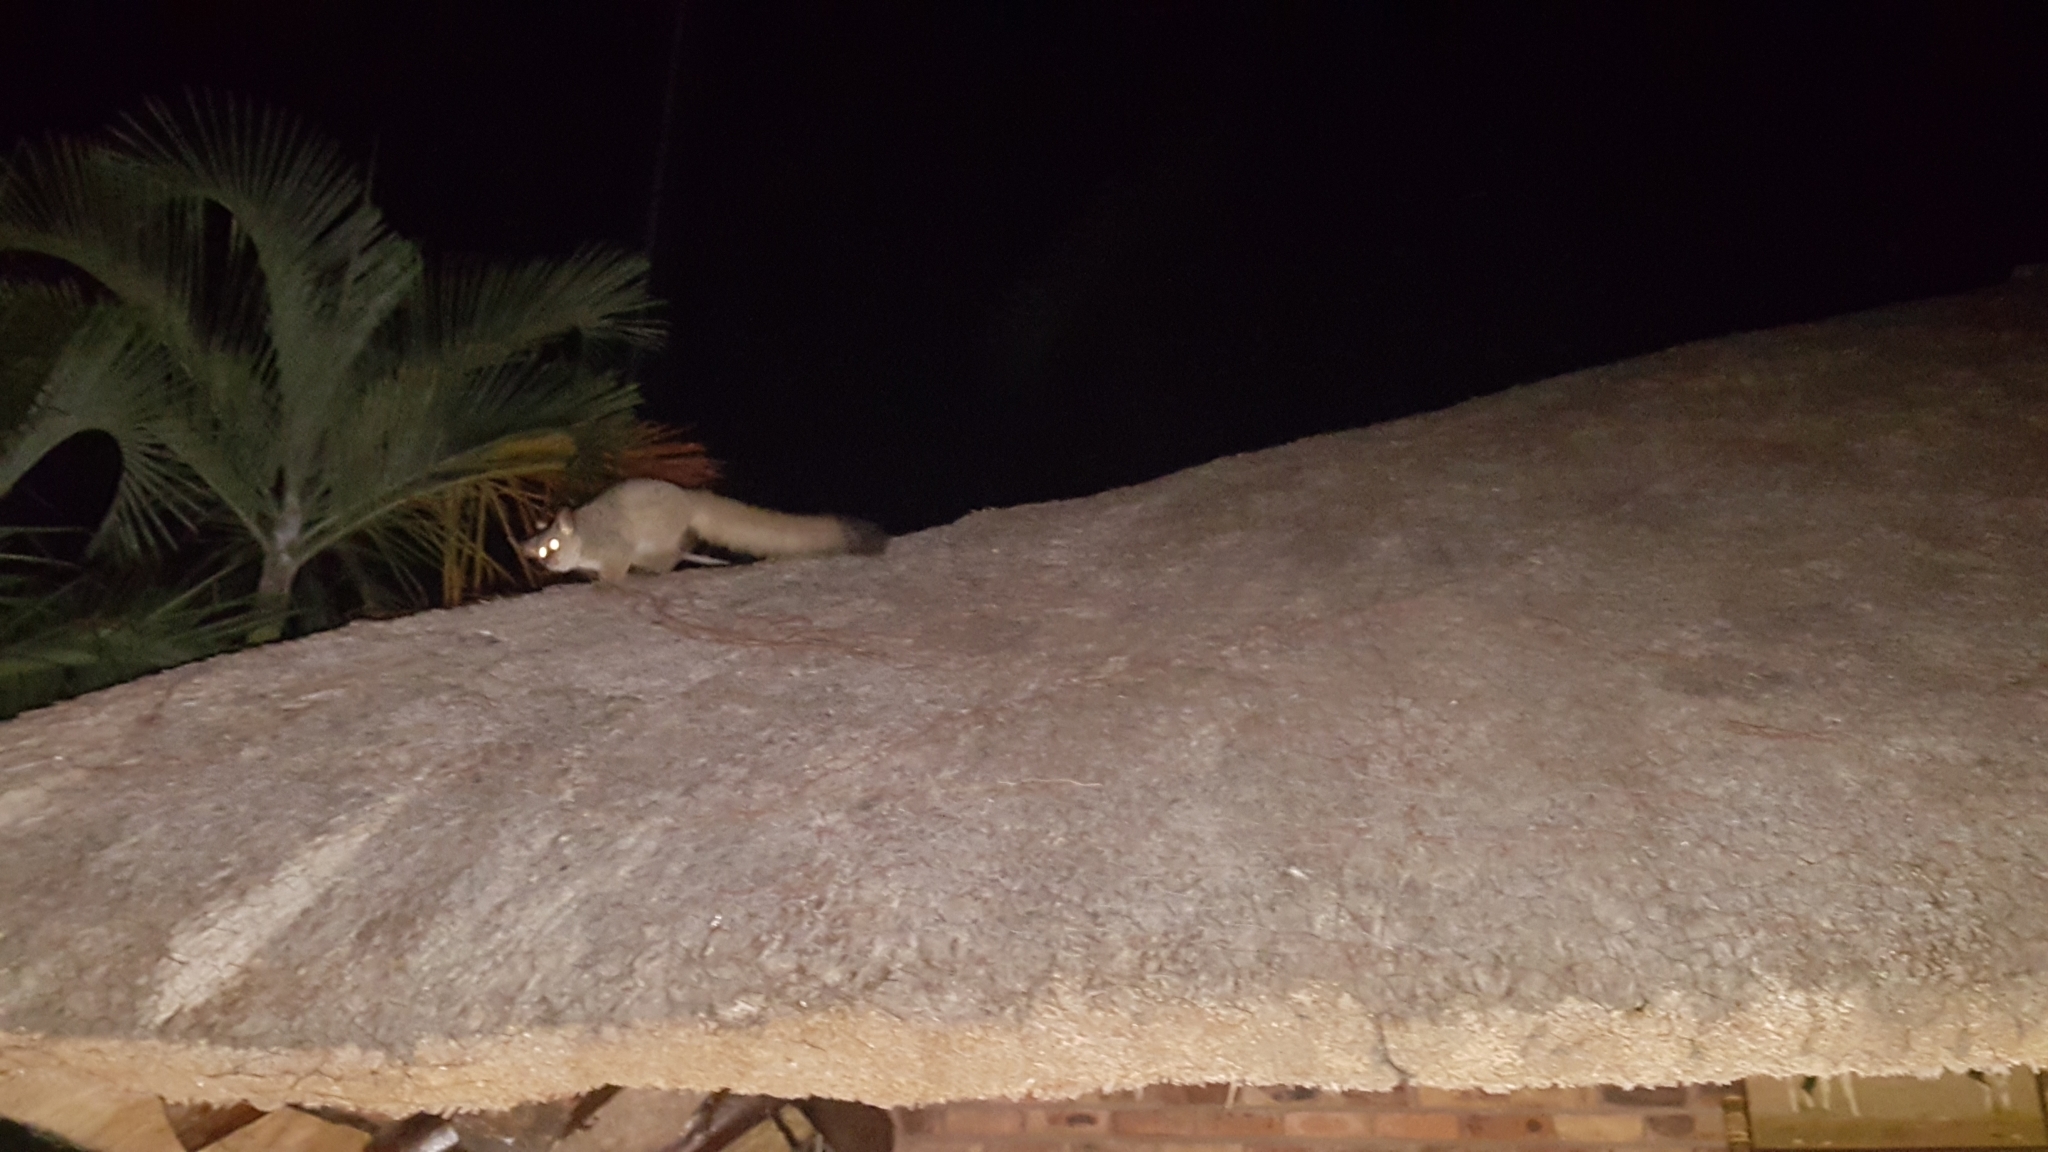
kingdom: Animalia
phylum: Chordata
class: Mammalia
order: Primates
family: Galagidae
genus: Otolemur
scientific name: Otolemur crassicaudatus
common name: Brown greater galago
